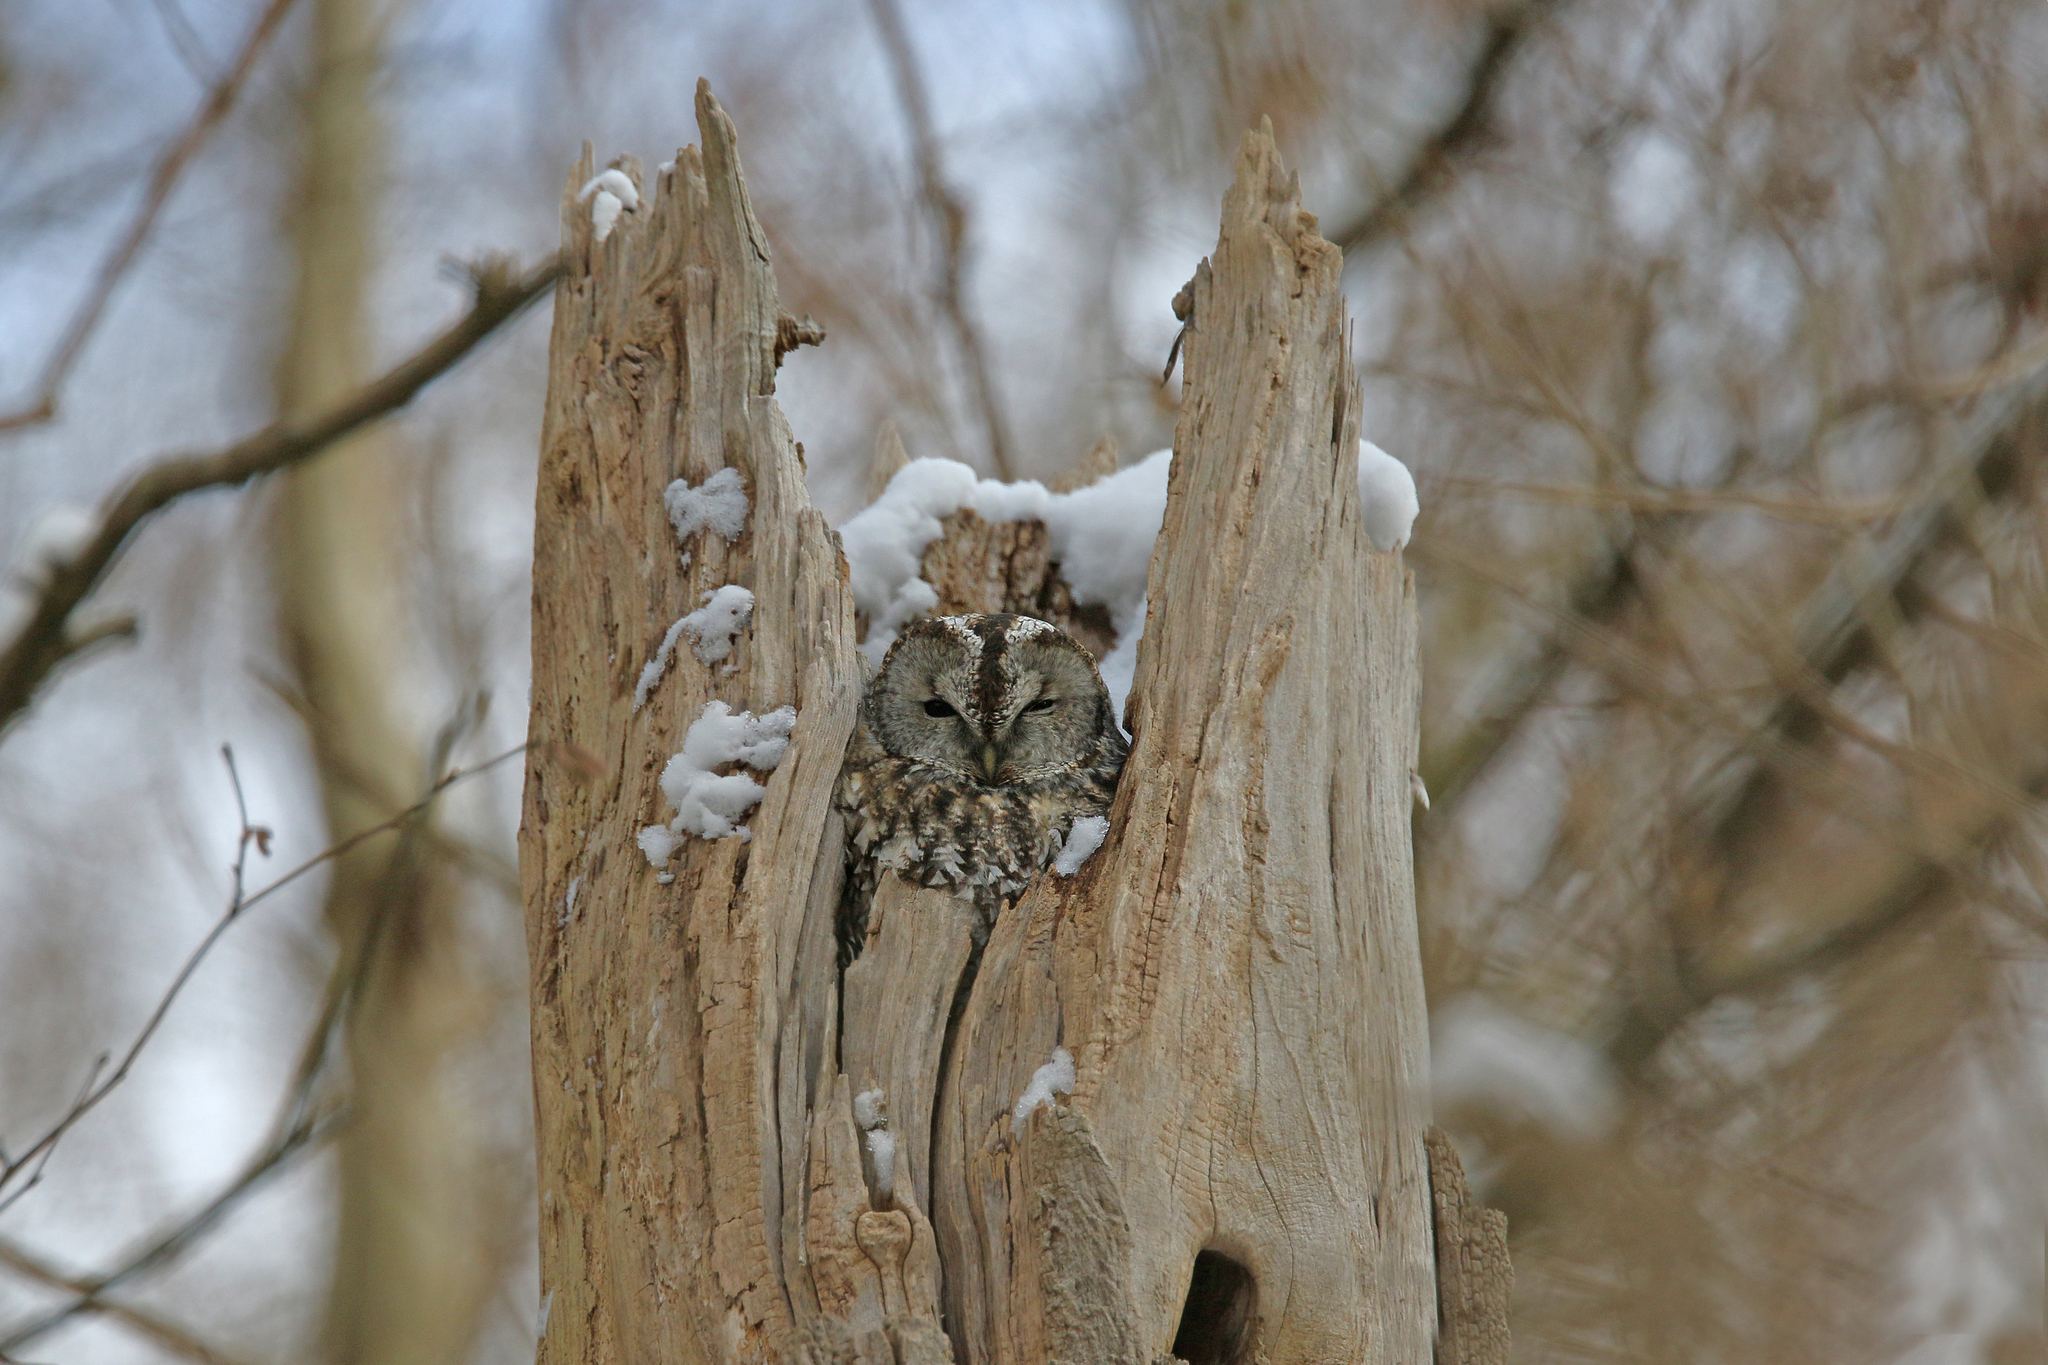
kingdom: Animalia
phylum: Chordata
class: Aves
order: Strigiformes
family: Strigidae
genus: Strix
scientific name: Strix aluco
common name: Tawny owl
